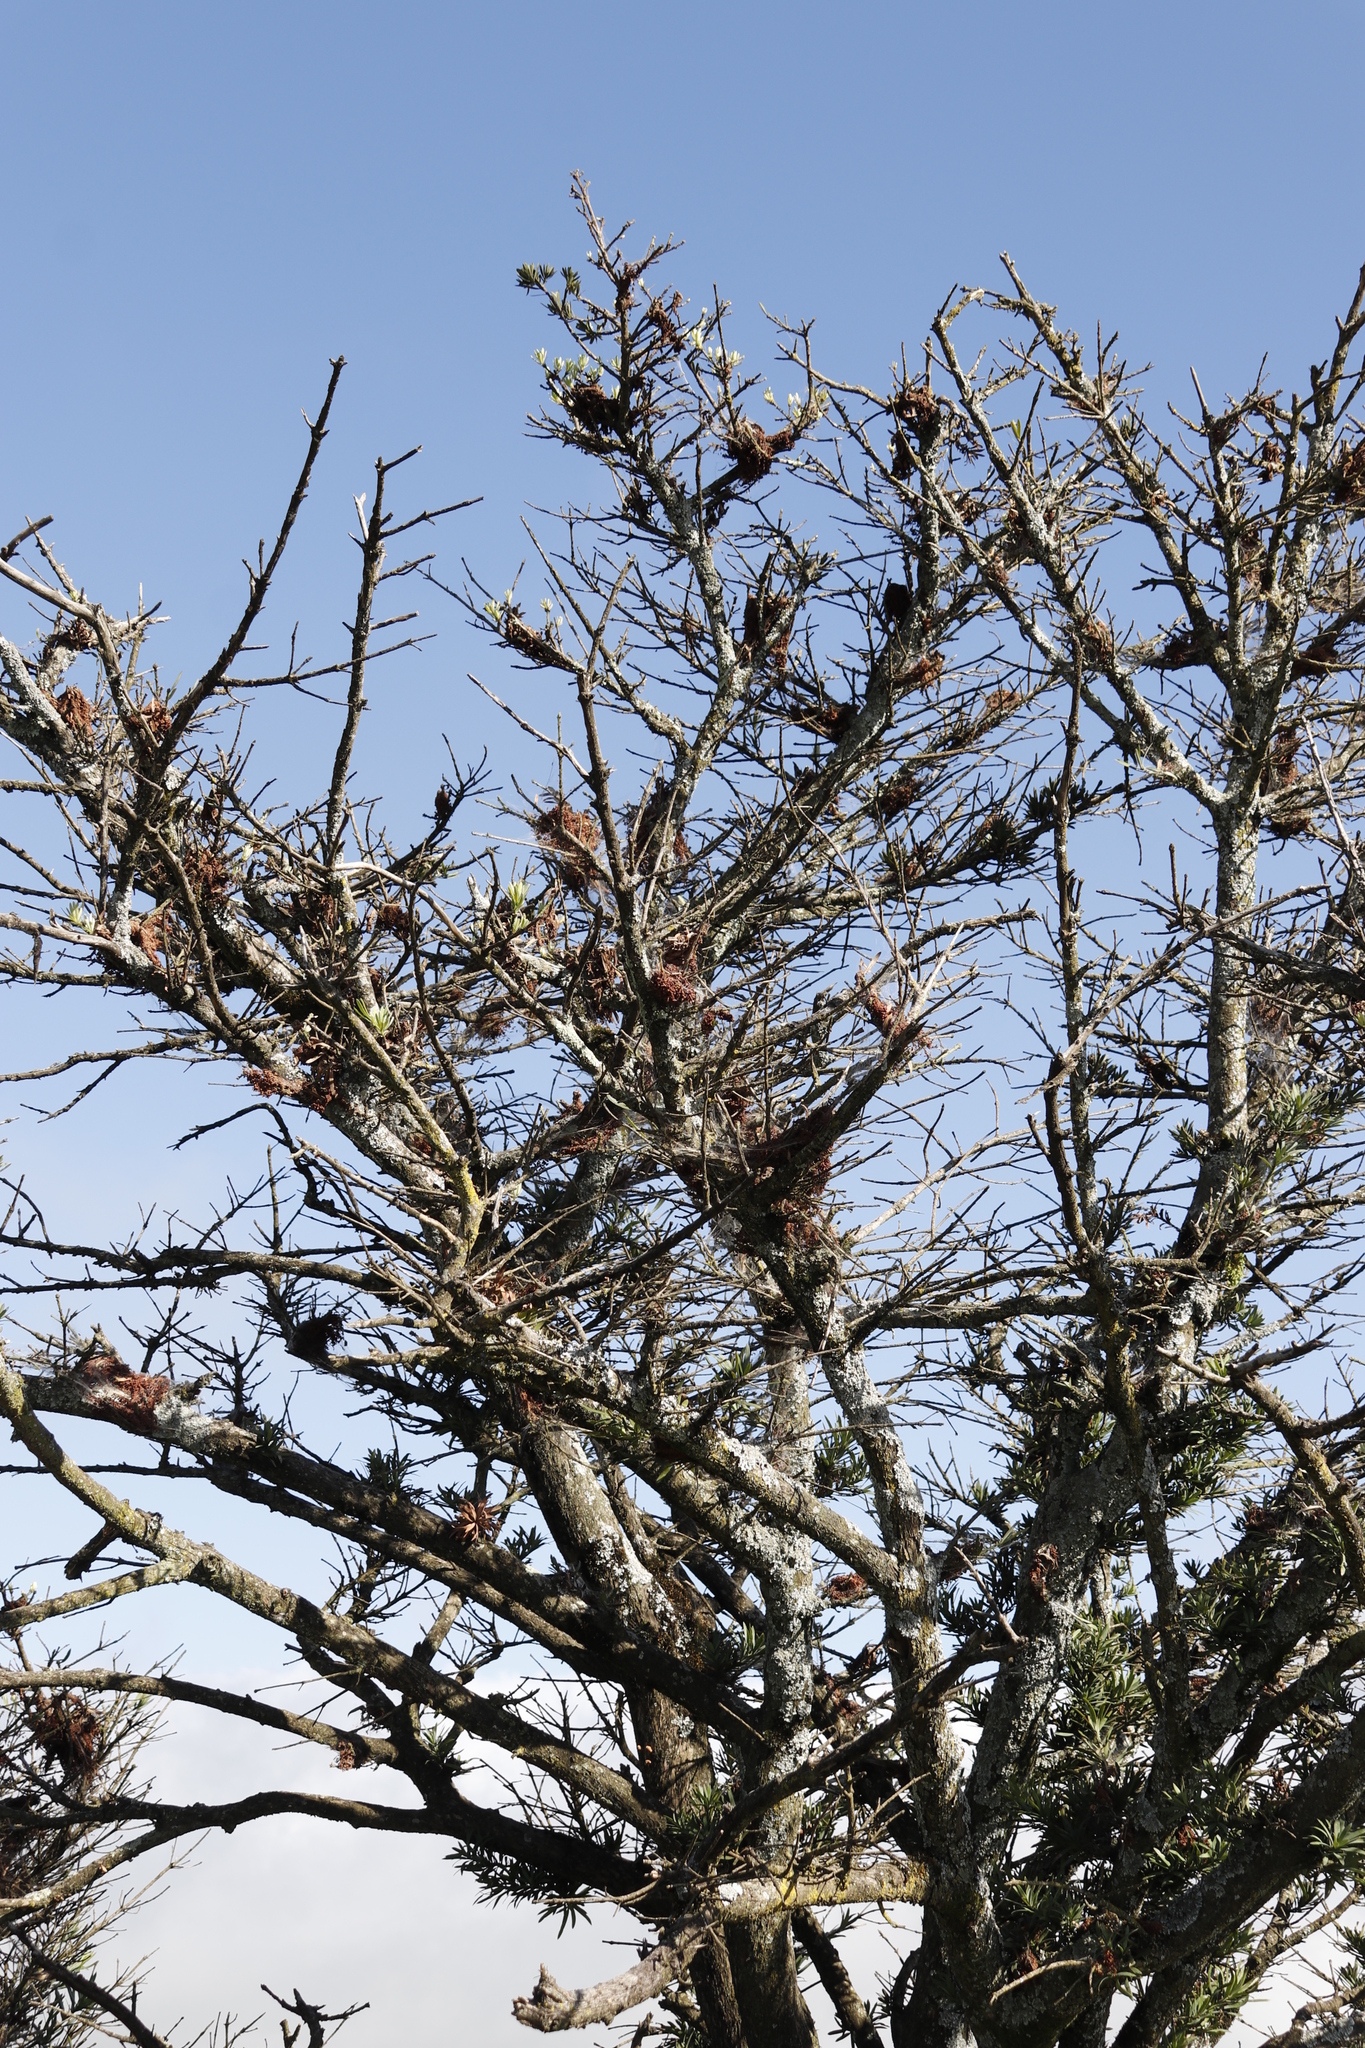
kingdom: Plantae
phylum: Tracheophyta
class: Pinopsida
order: Pinales
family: Podocarpaceae
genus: Podocarpus
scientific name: Podocarpus latifolius
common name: True yellowwood
